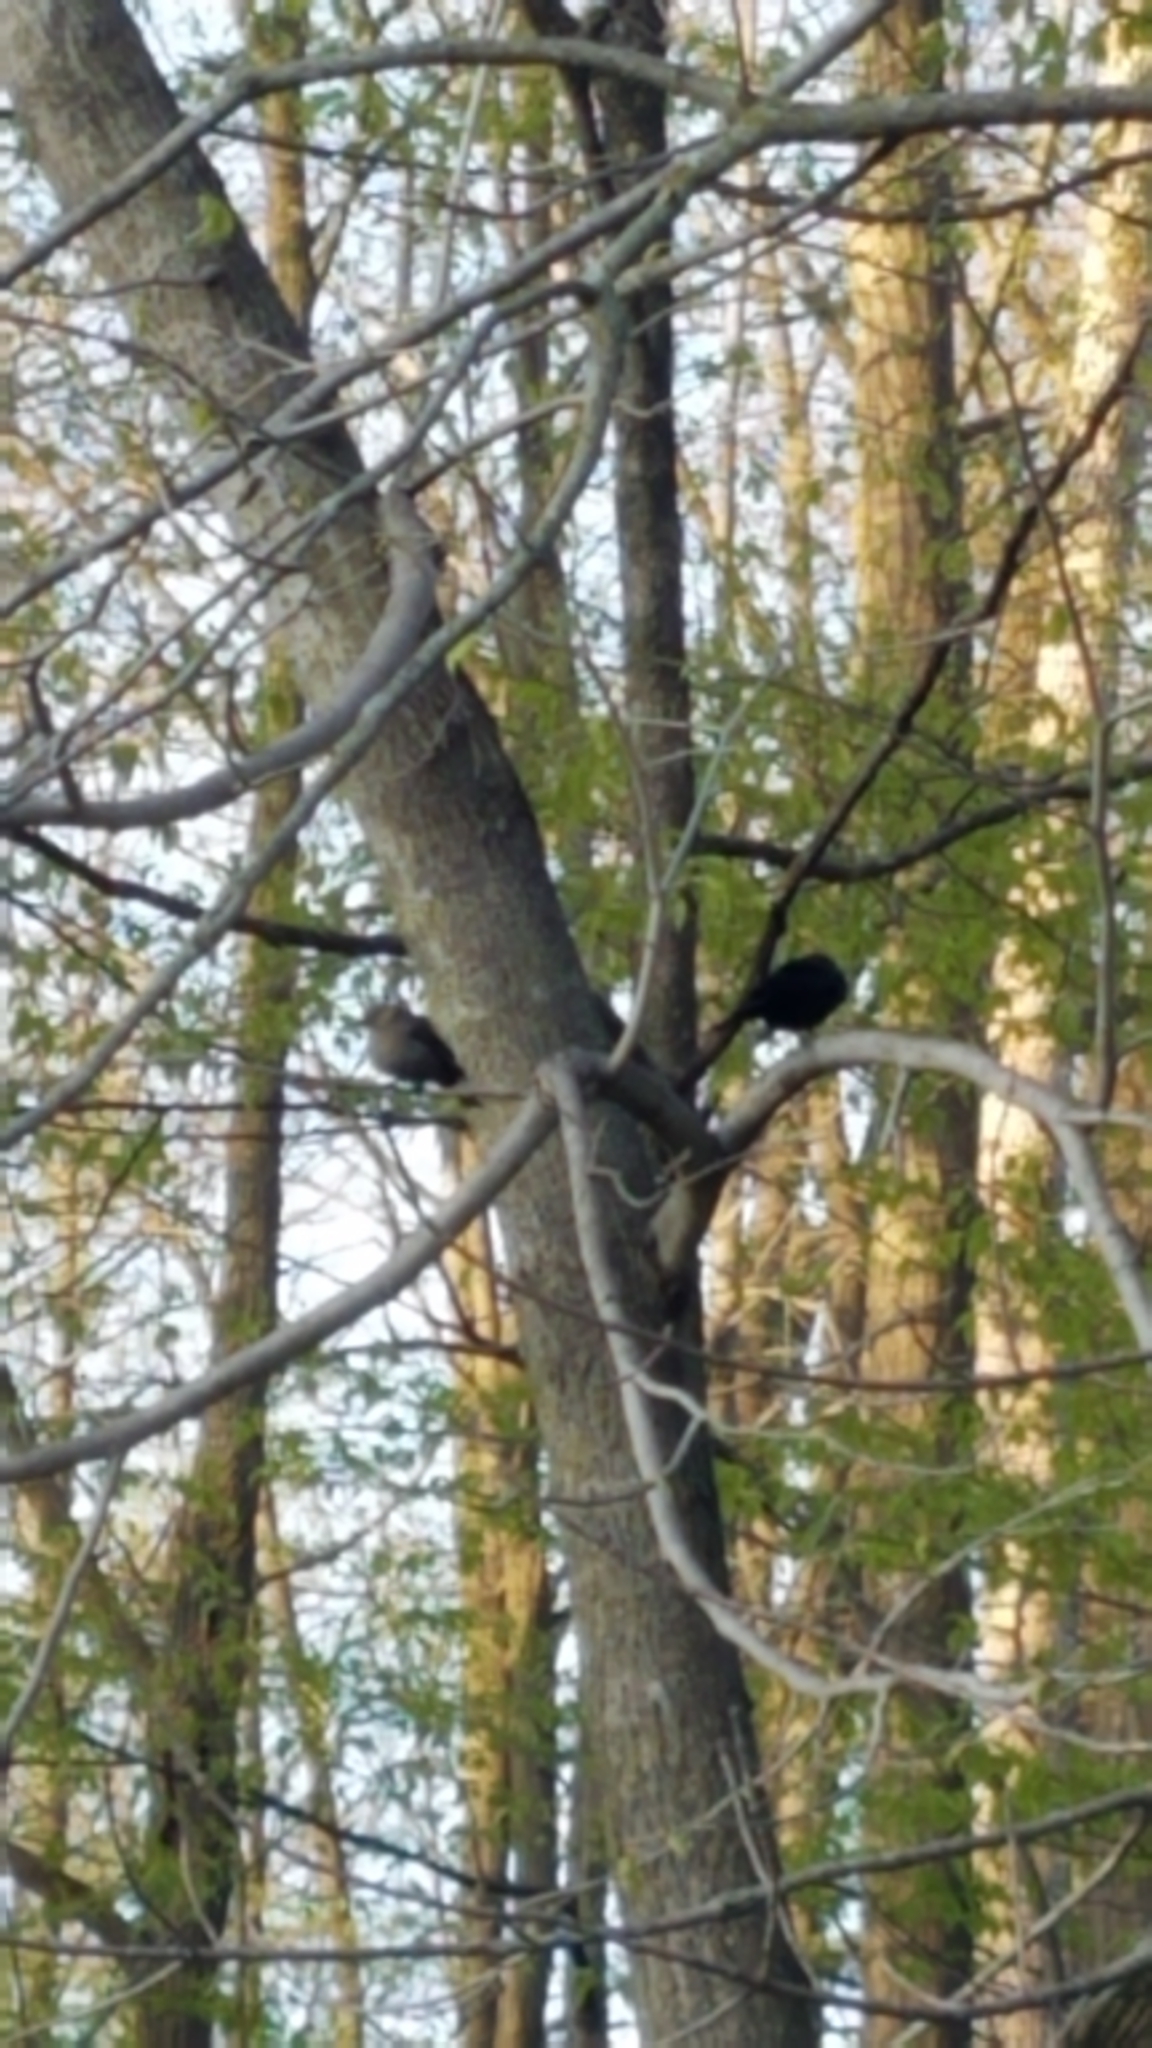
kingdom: Animalia
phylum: Chordata
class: Aves
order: Passeriformes
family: Icteridae
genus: Molothrus
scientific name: Molothrus ater
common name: Brown-headed cowbird
